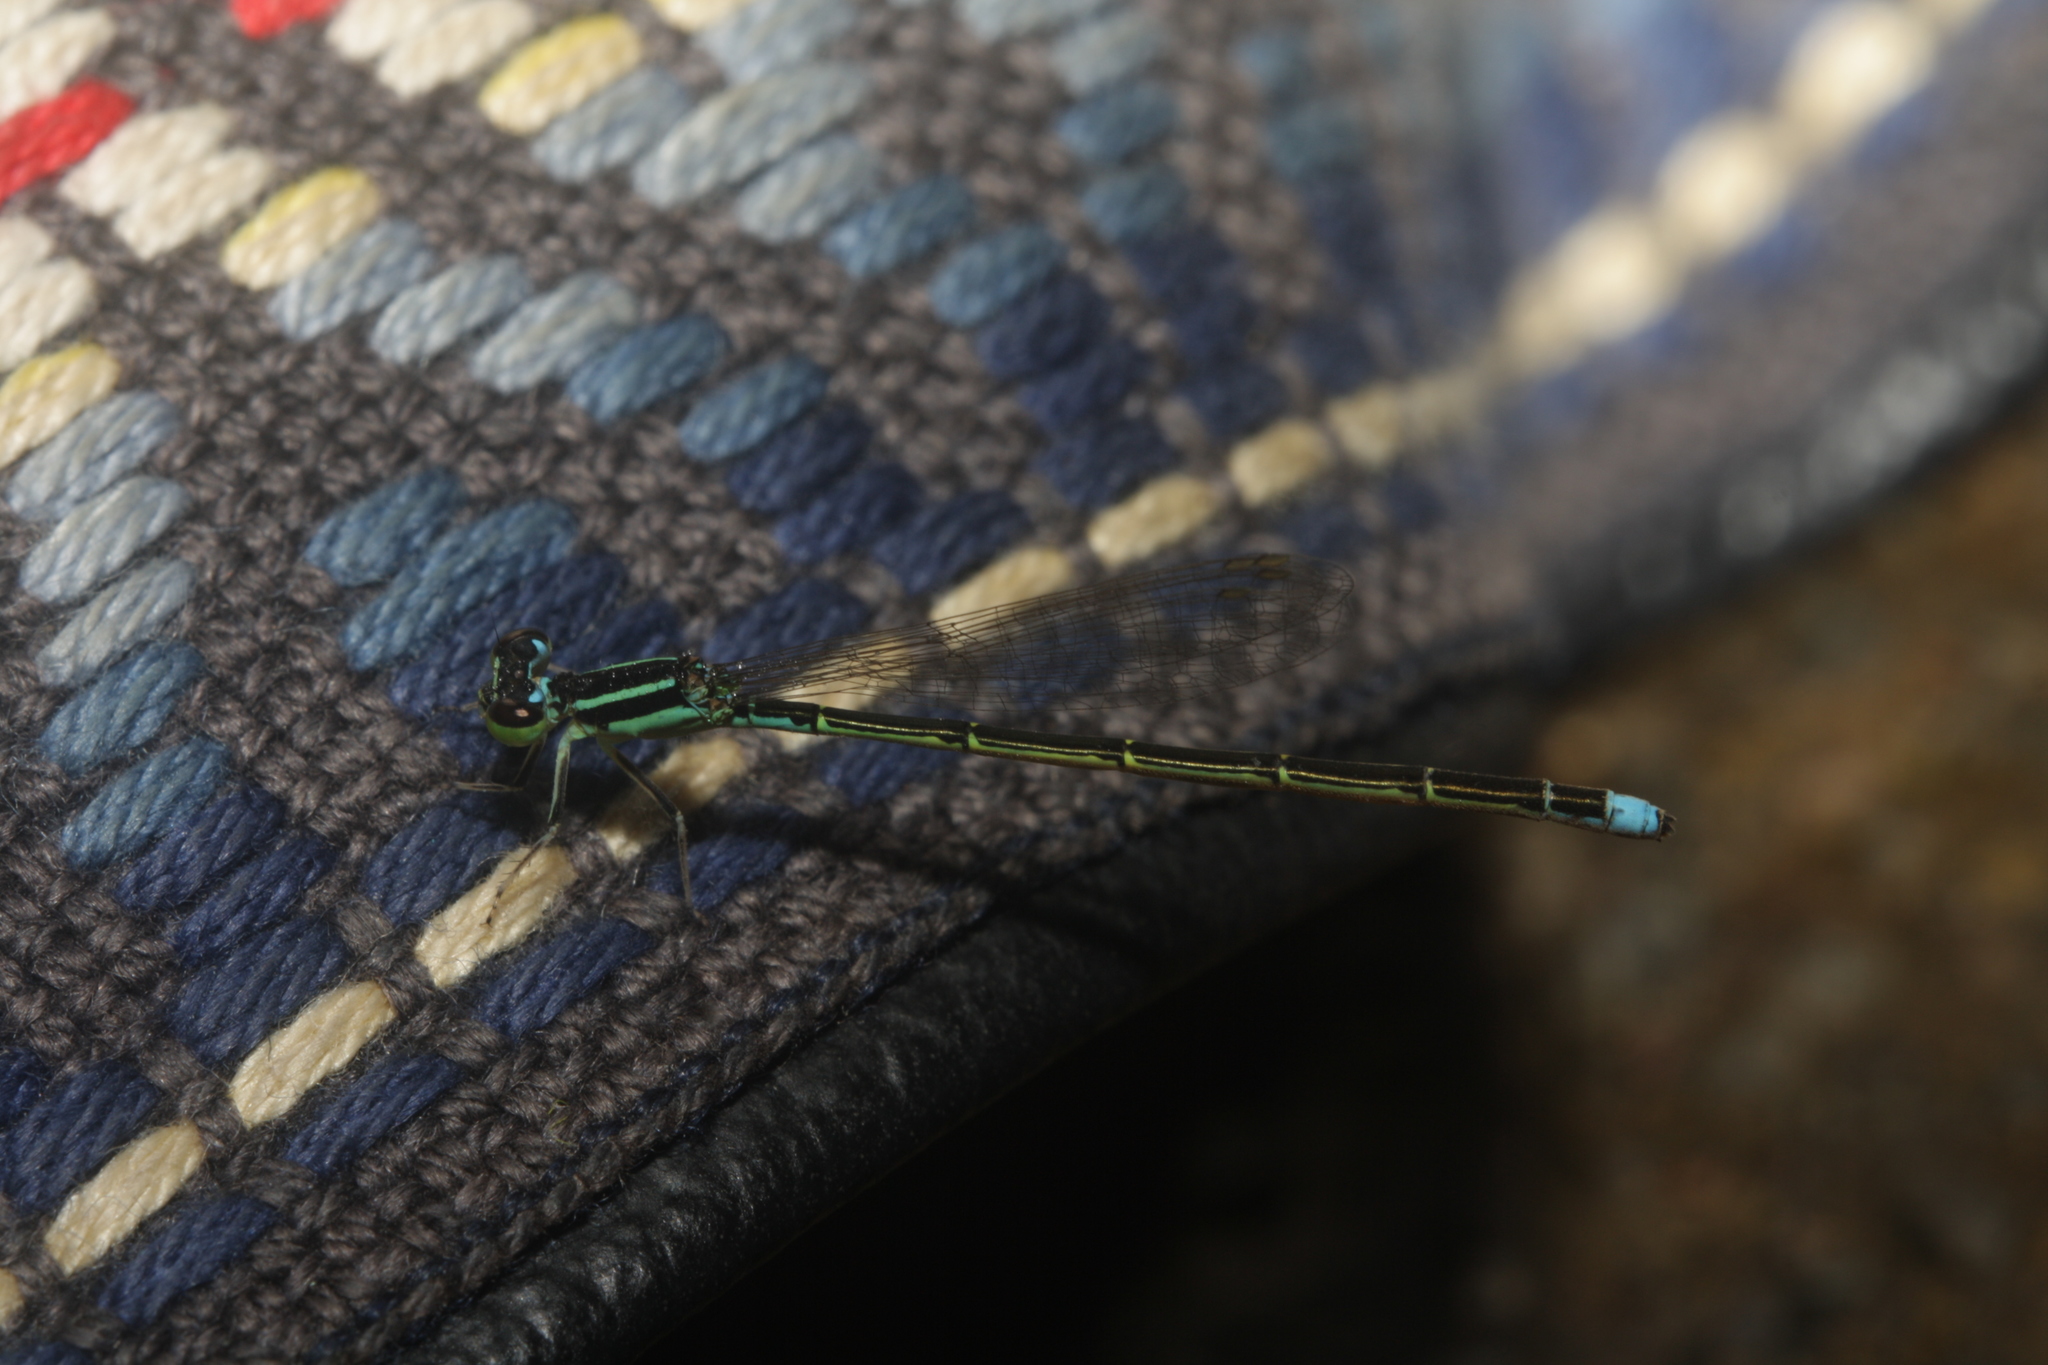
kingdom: Animalia
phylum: Arthropoda
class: Insecta
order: Odonata
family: Coenagrionidae
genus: Ischnura
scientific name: Ischnura capreolus
